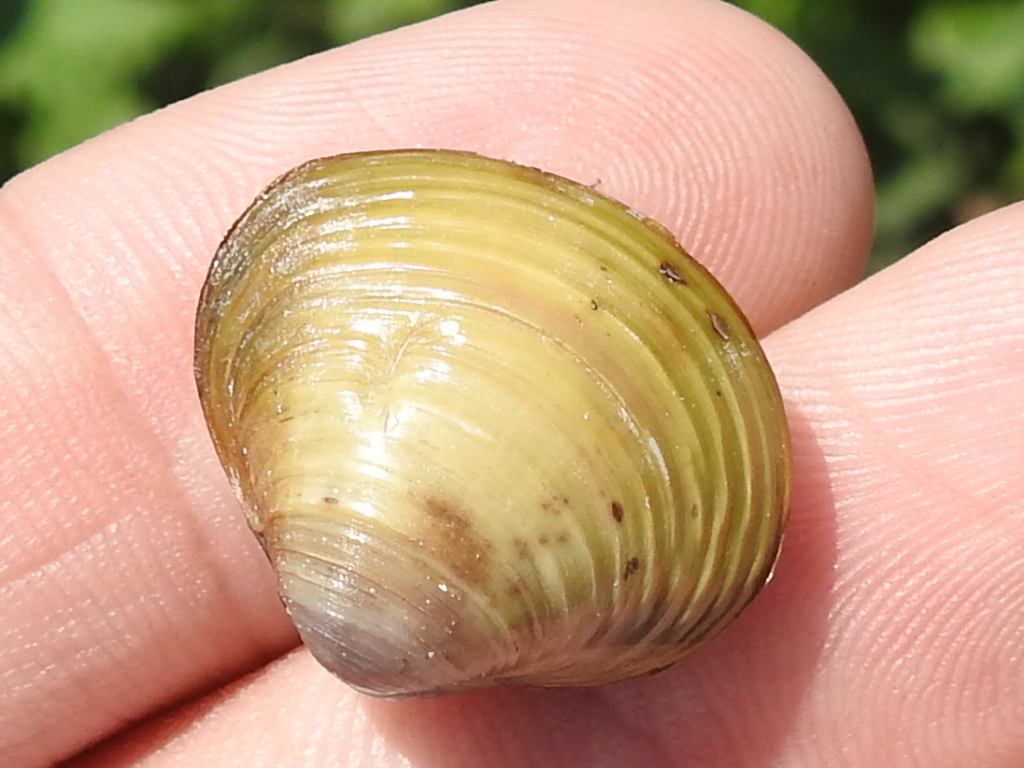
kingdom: Animalia
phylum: Mollusca
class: Bivalvia
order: Venerida
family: Cyrenidae
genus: Corbicula
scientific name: Corbicula fluminea
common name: Asian clam
